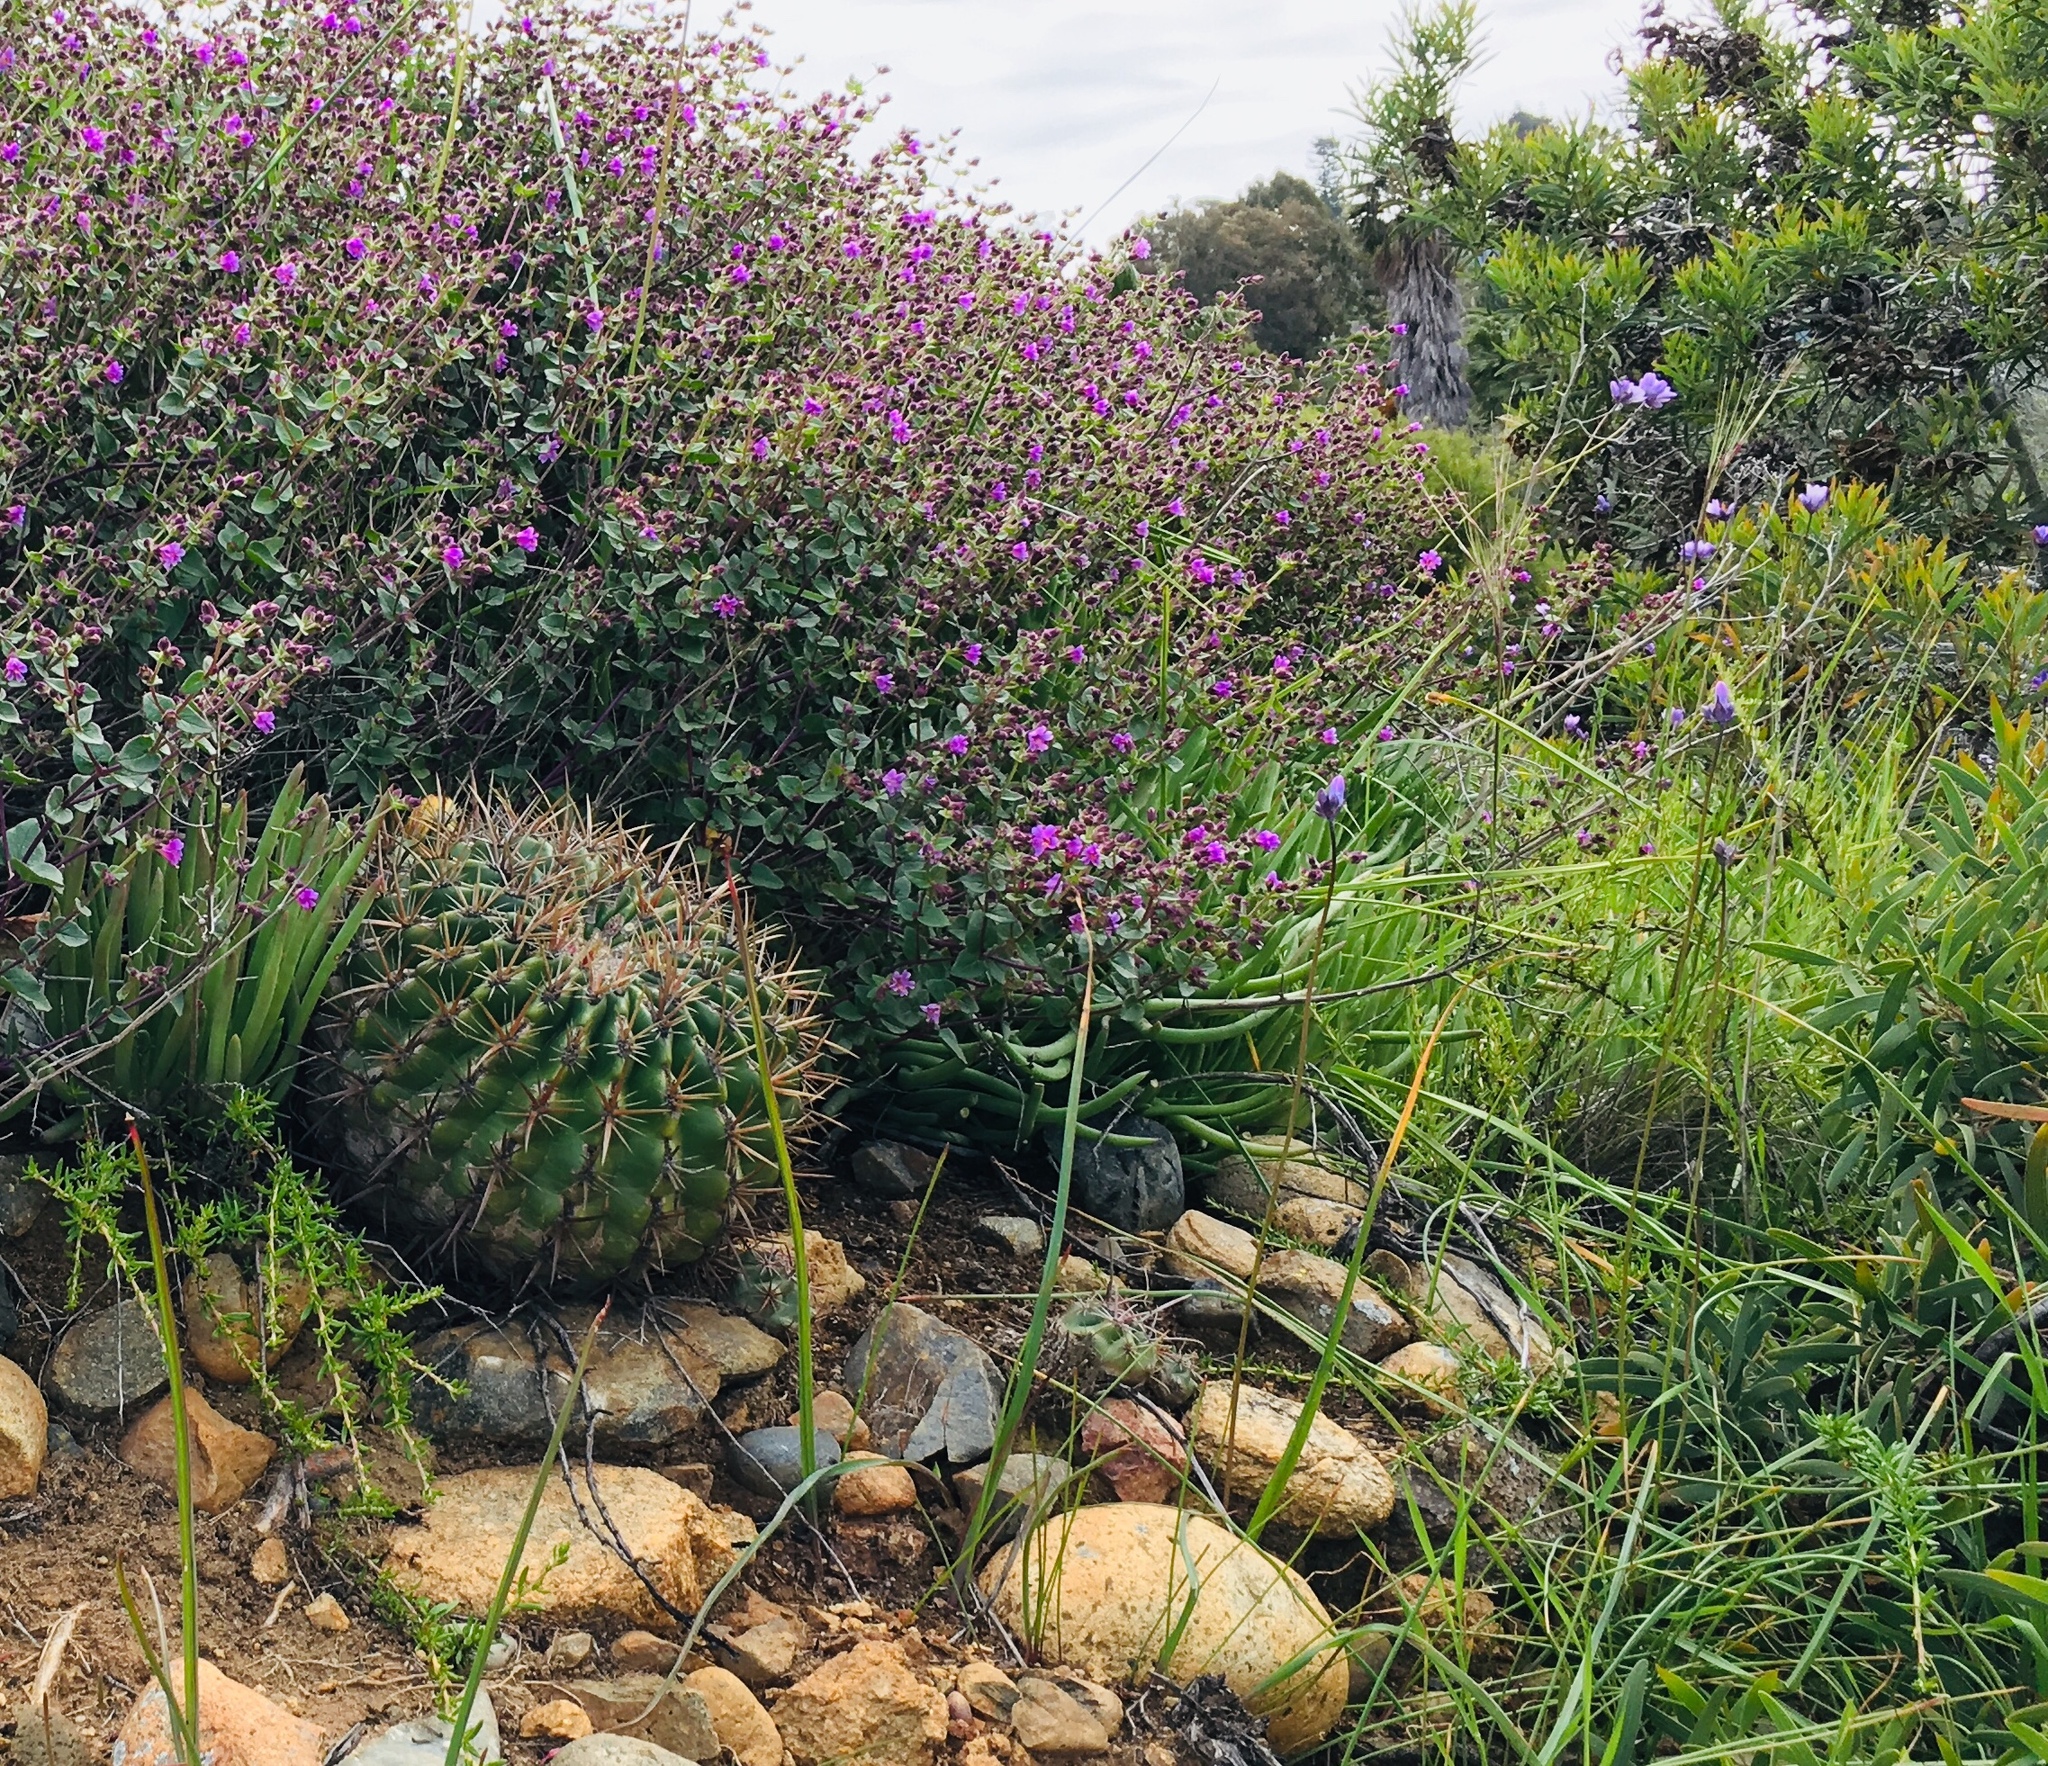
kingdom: Plantae
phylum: Tracheophyta
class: Magnoliopsida
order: Caryophyllales
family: Cactaceae
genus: Ferocactus
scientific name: Ferocactus viridescens
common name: San diego barrel cactus
